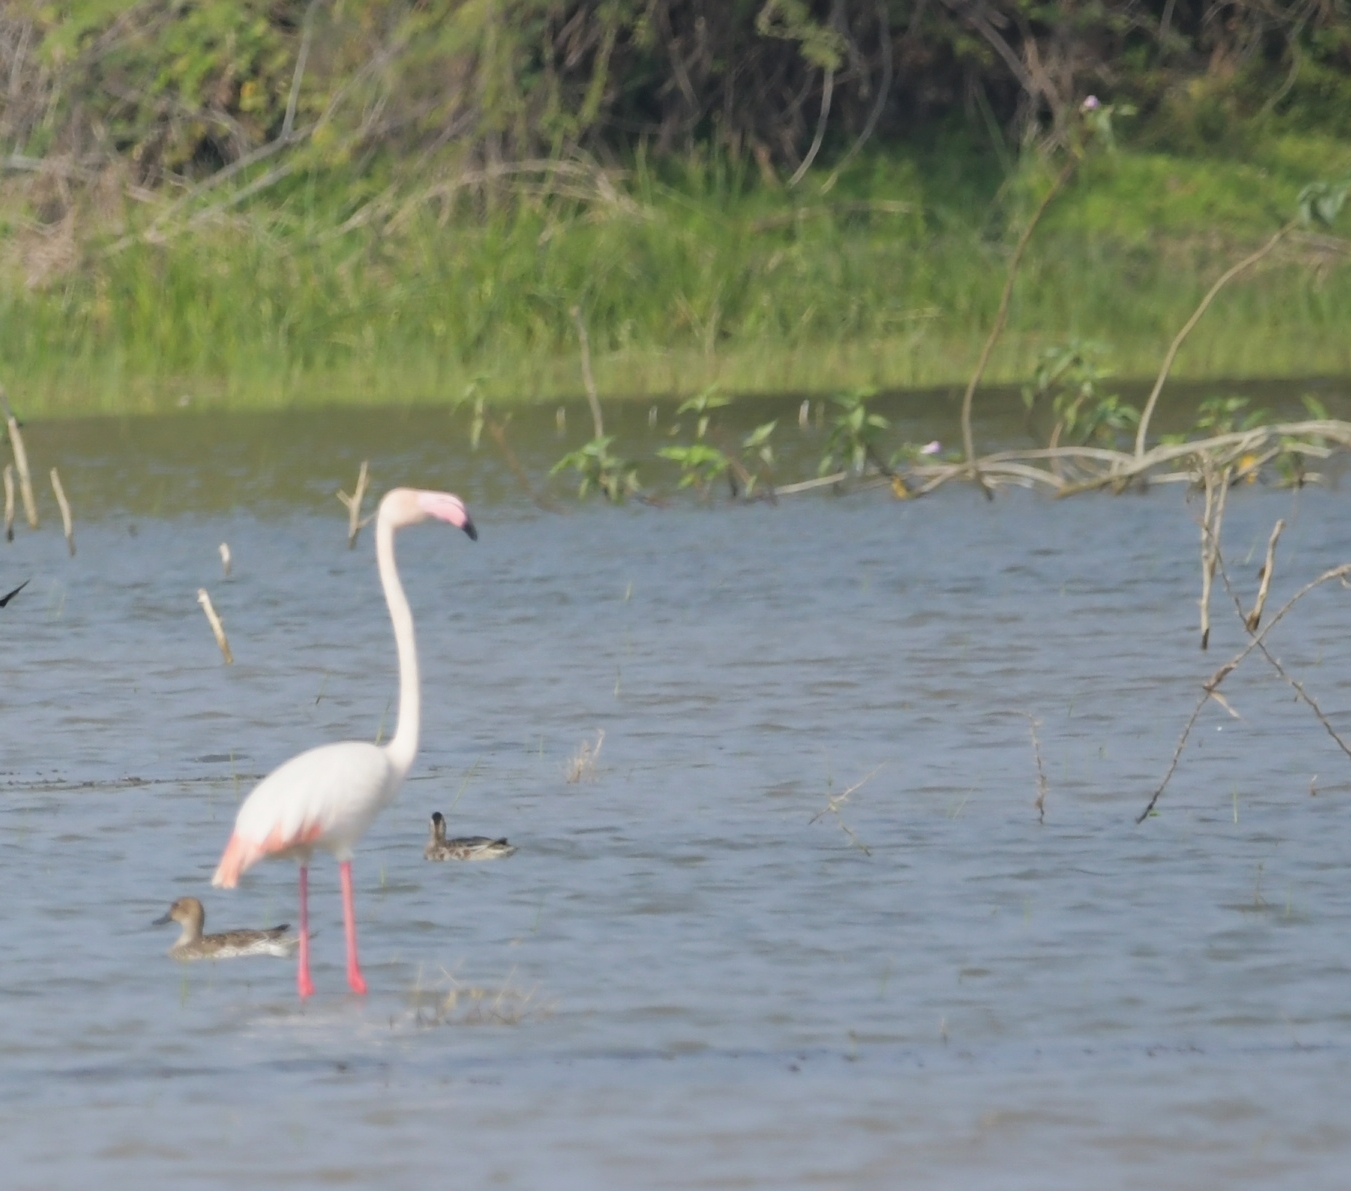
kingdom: Animalia
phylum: Chordata
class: Aves
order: Phoenicopteriformes
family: Phoenicopteridae
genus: Phoenicopterus
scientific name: Phoenicopterus roseus
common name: Greater flamingo
